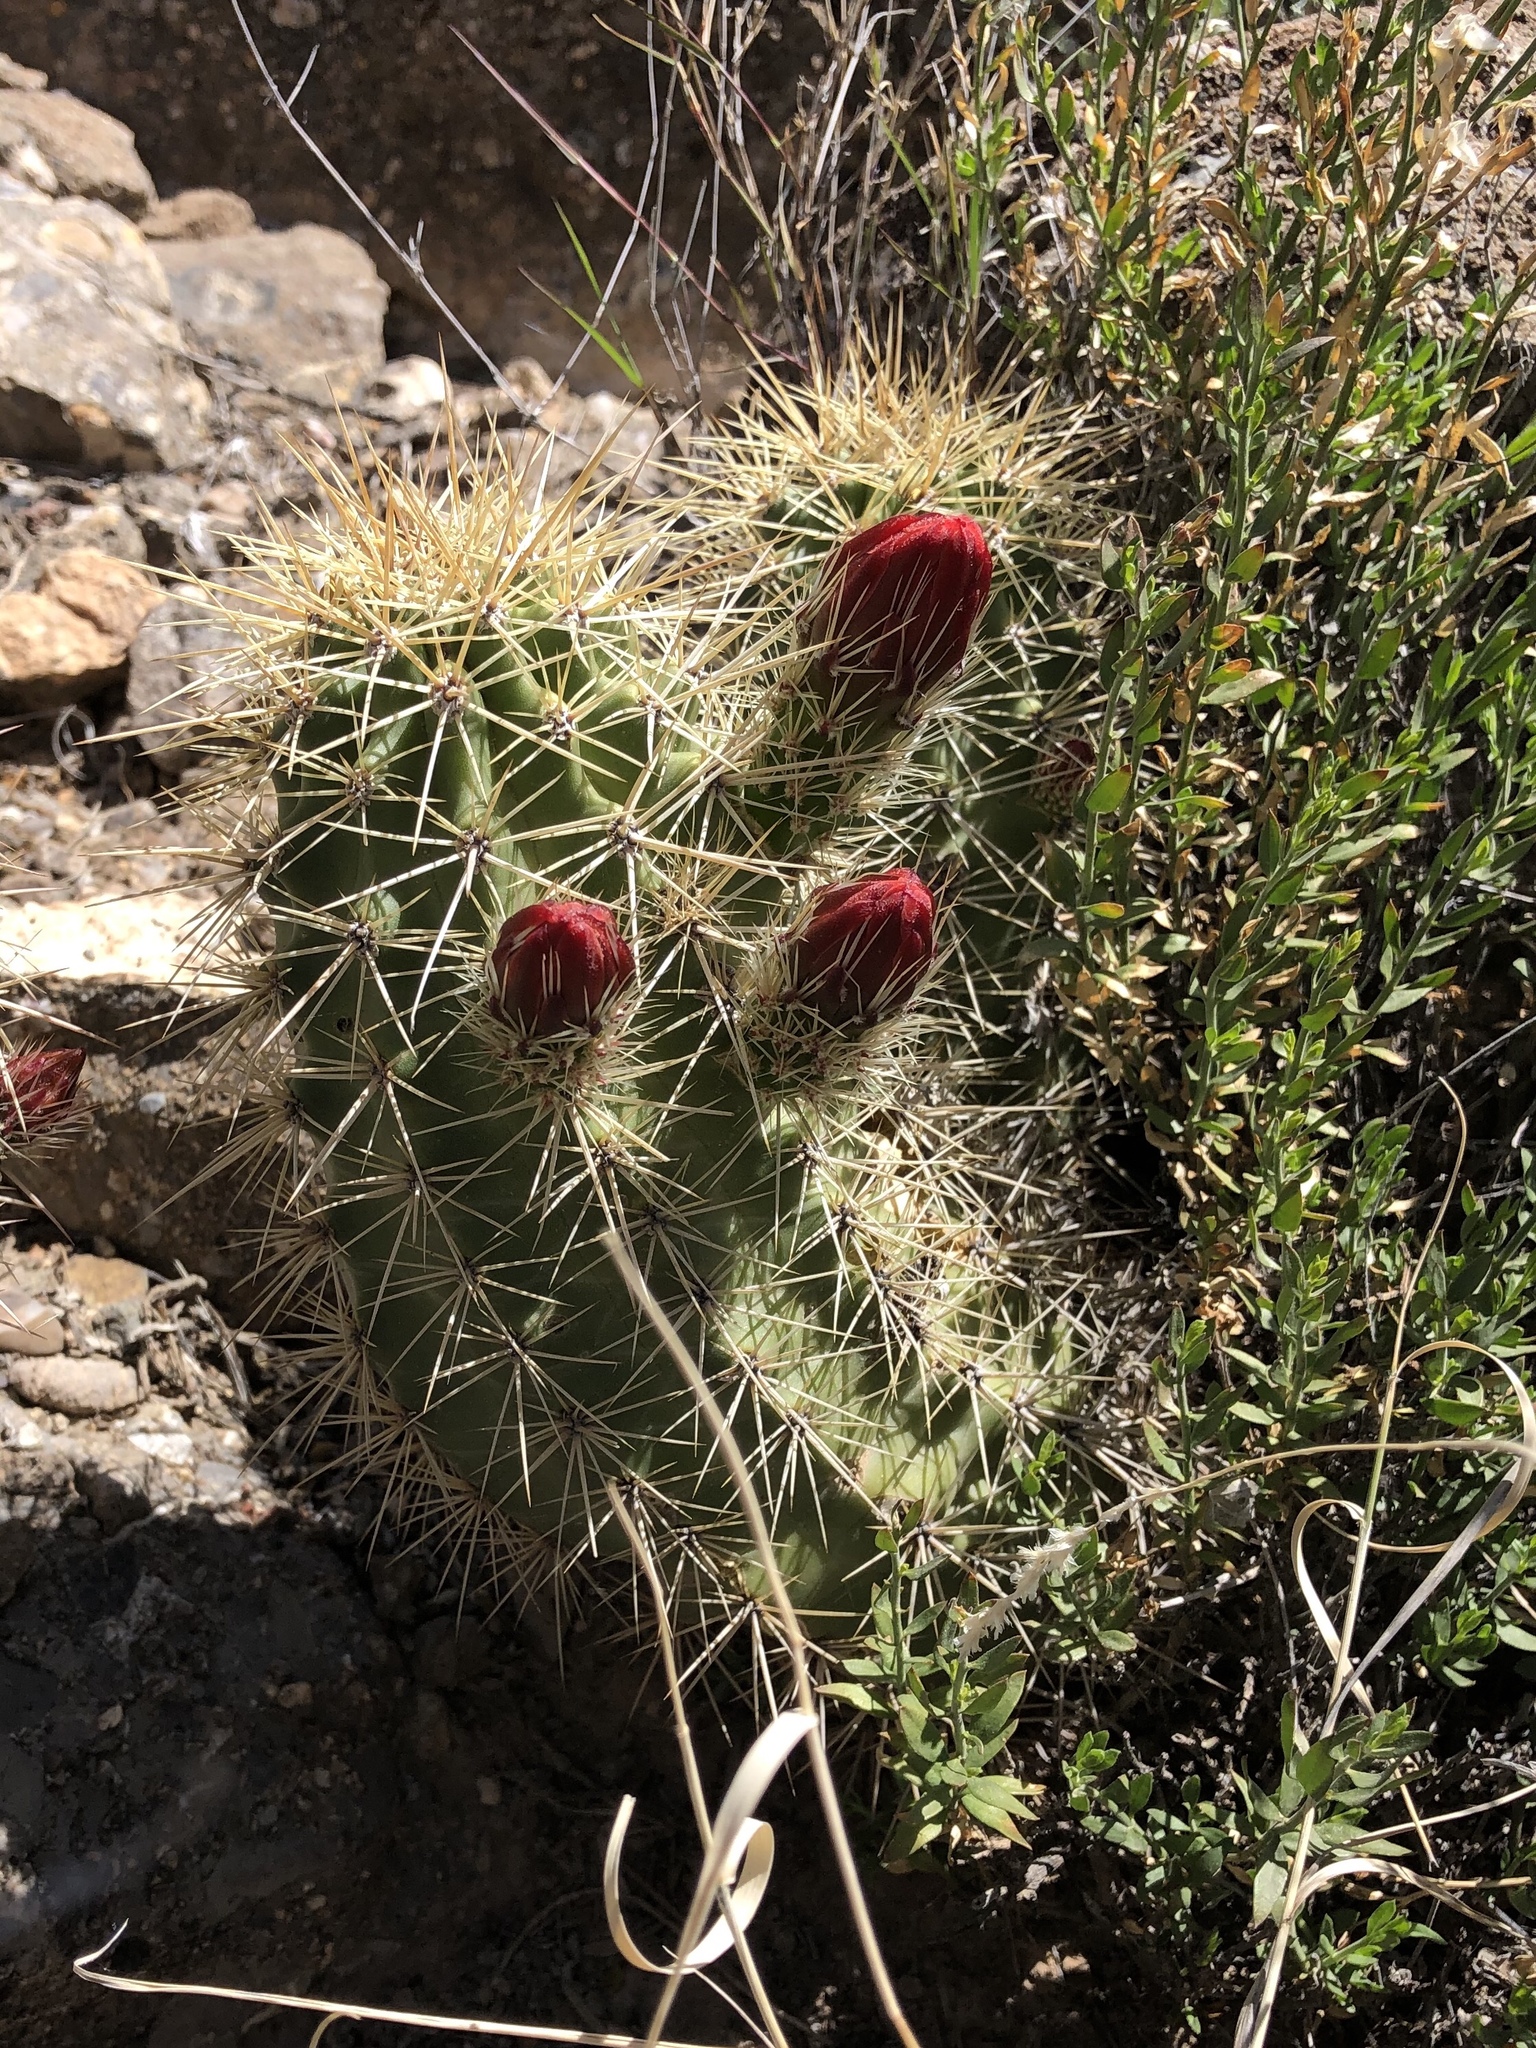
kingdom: Plantae
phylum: Tracheophyta
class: Magnoliopsida
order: Caryophyllales
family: Cactaceae
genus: Echinocereus
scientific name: Echinocereus coccineus
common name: Scarlet hedgehog cactus
